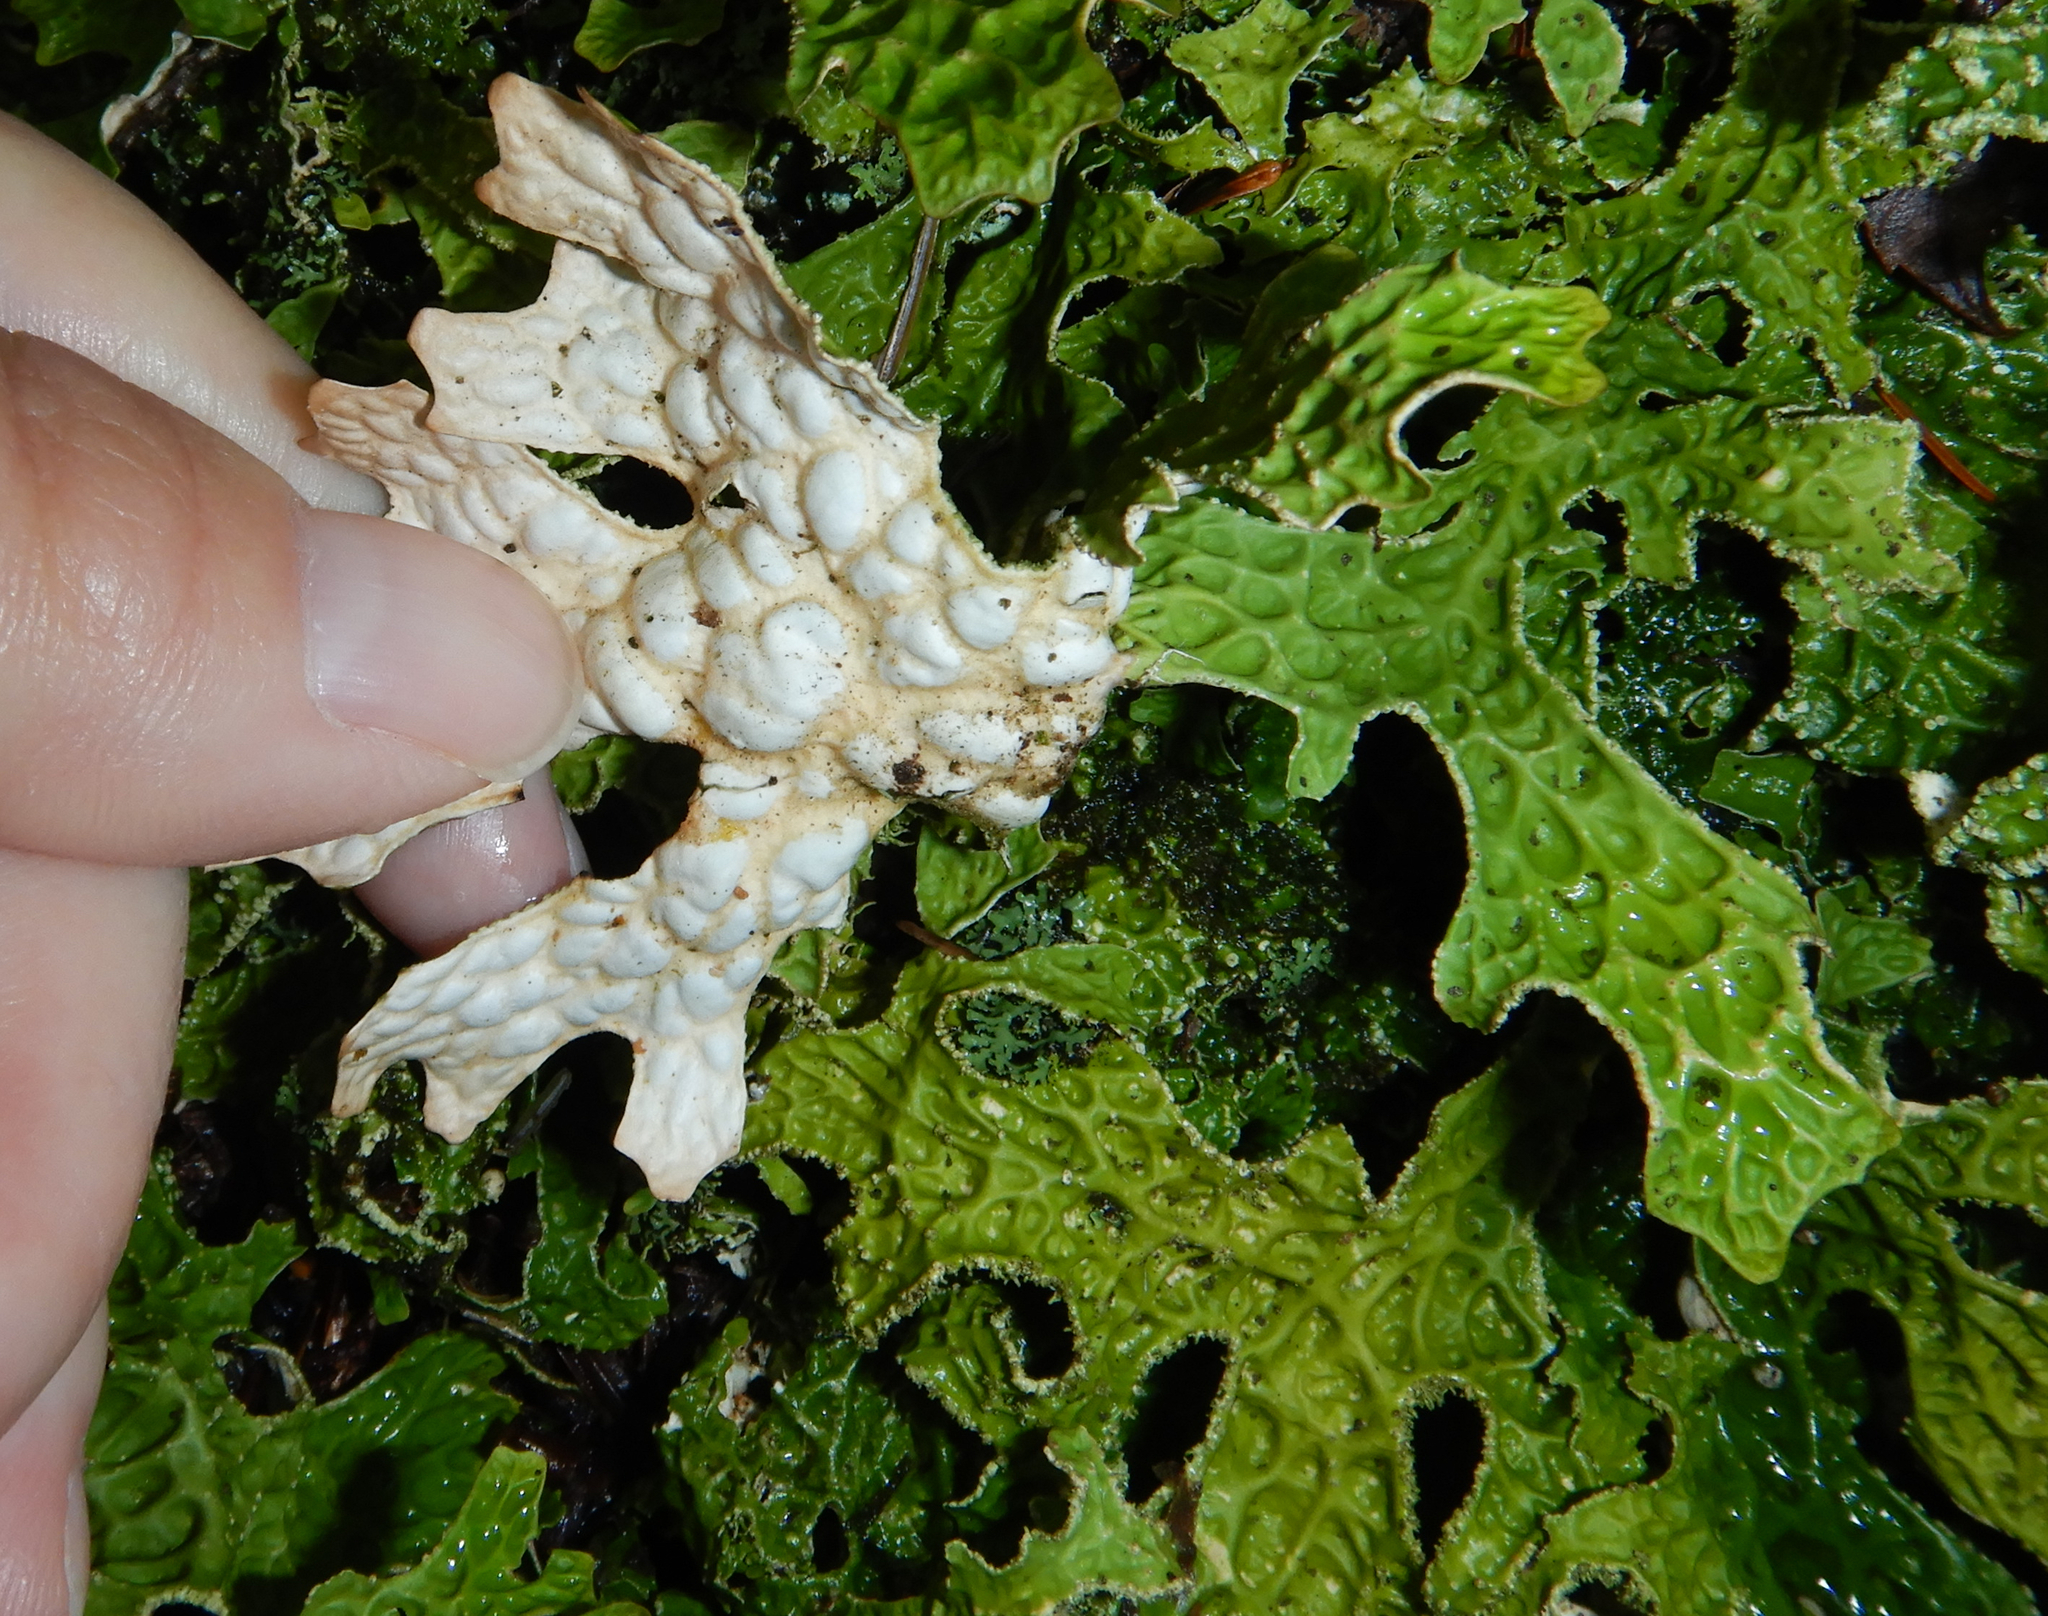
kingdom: Fungi
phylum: Ascomycota
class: Lecanoromycetes
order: Peltigerales
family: Lobariaceae
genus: Lobaria
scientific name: Lobaria pulmonaria
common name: Lungwort
